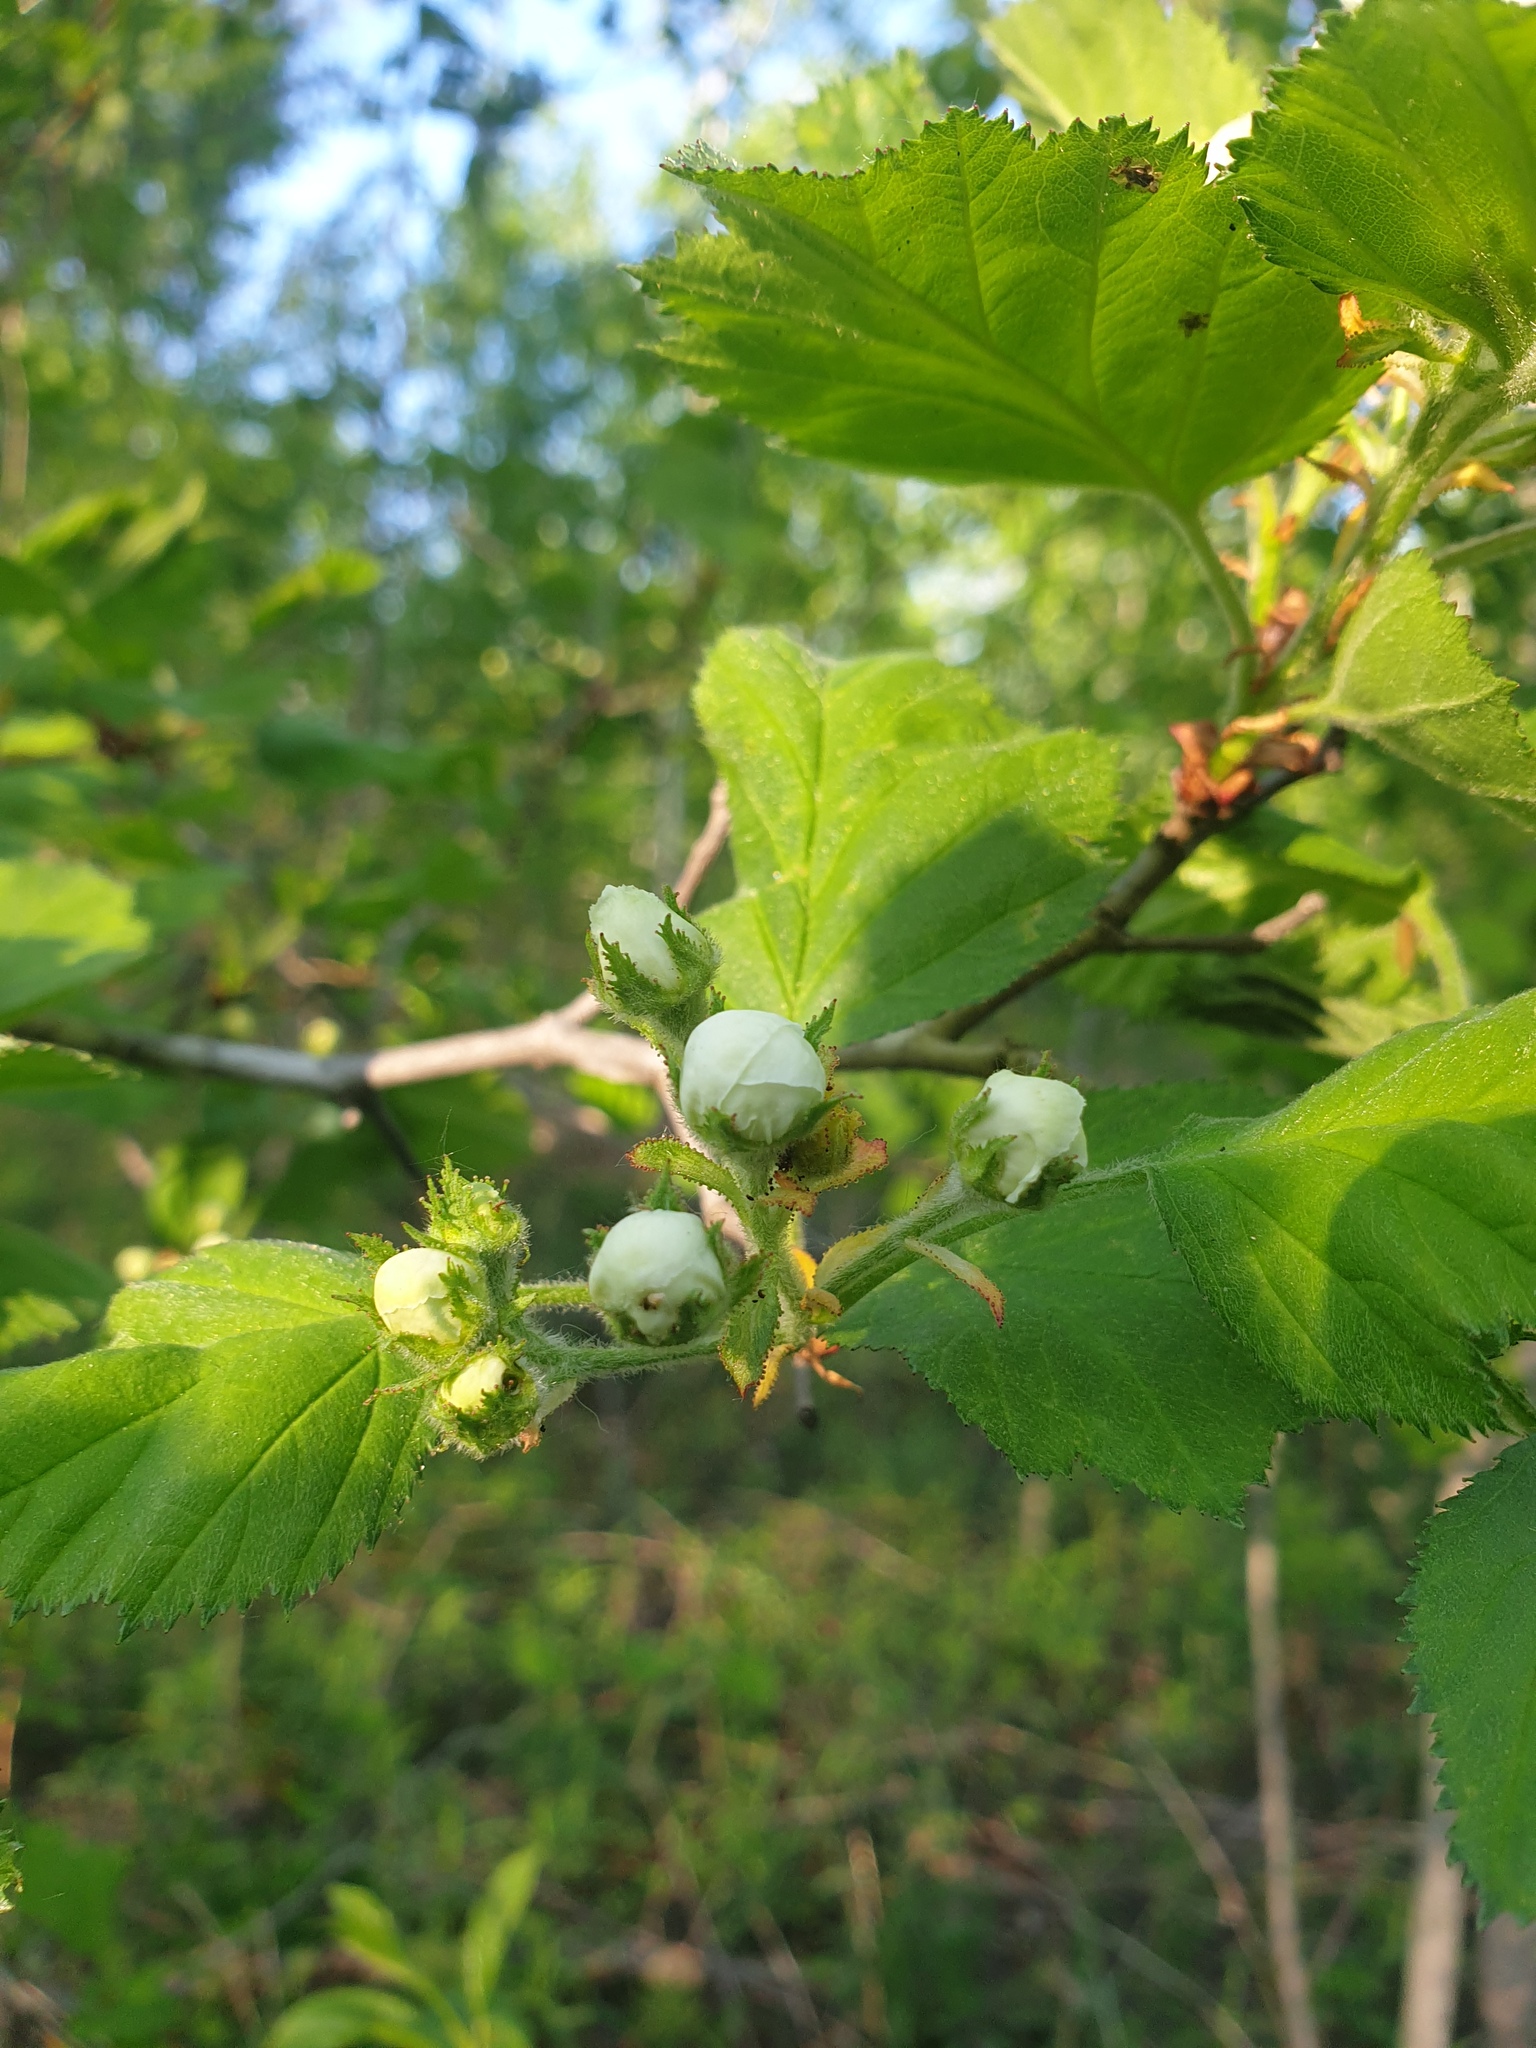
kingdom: Plantae
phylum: Tracheophyta
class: Magnoliopsida
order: Rosales
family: Rosaceae
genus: Crataegus
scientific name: Crataegus submollis
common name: Hairy cockspurthorn
